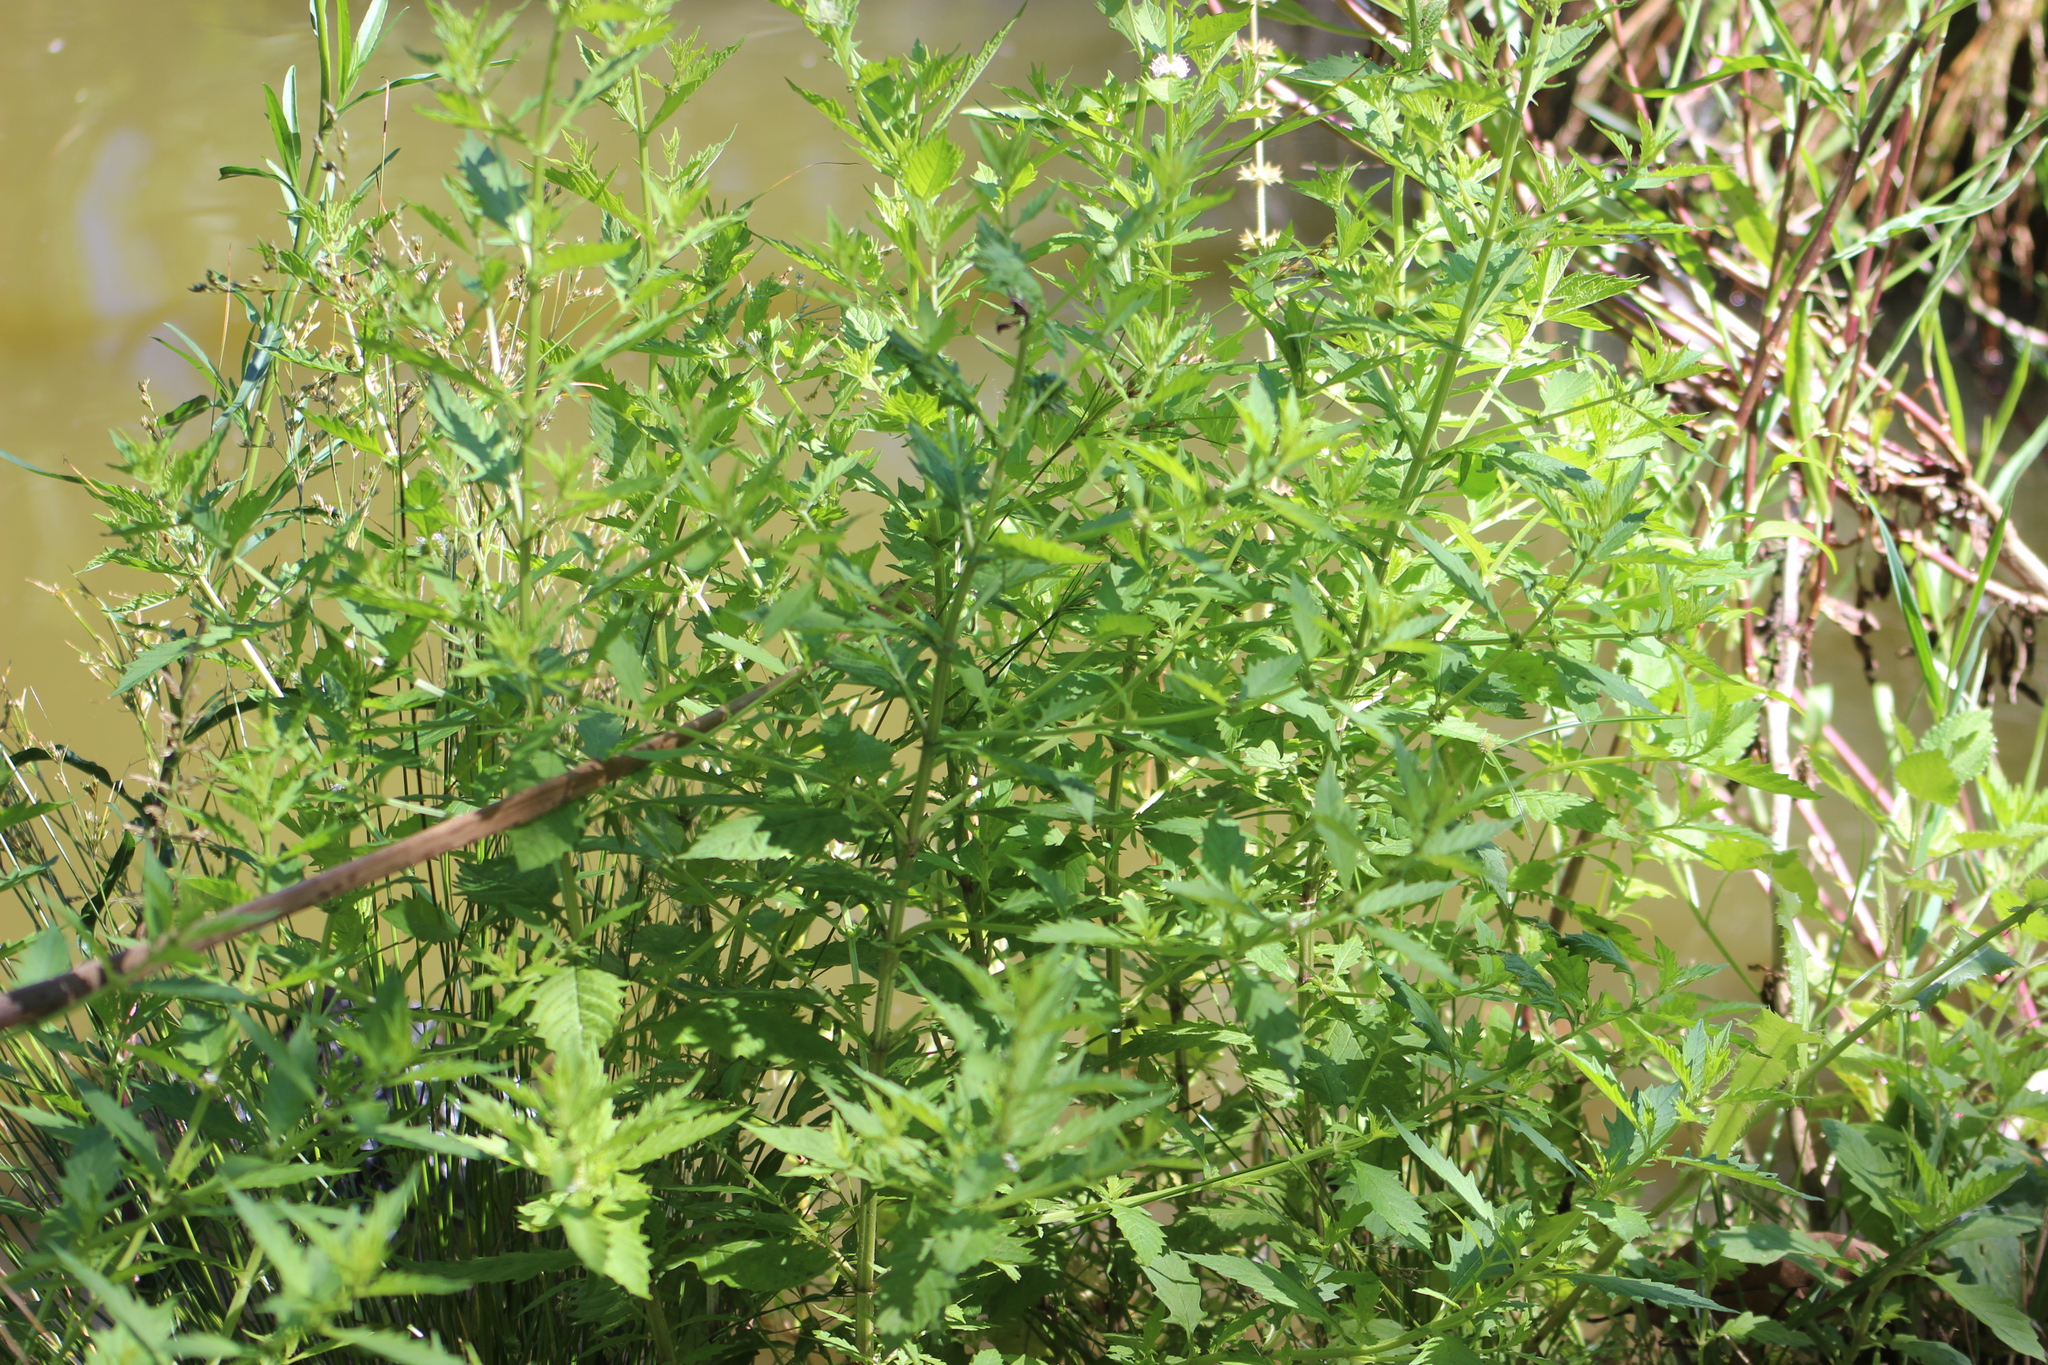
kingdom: Plantae
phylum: Tracheophyta
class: Magnoliopsida
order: Lamiales
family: Lamiaceae
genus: Lycopus
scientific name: Lycopus europaeus
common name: European bugleweed
